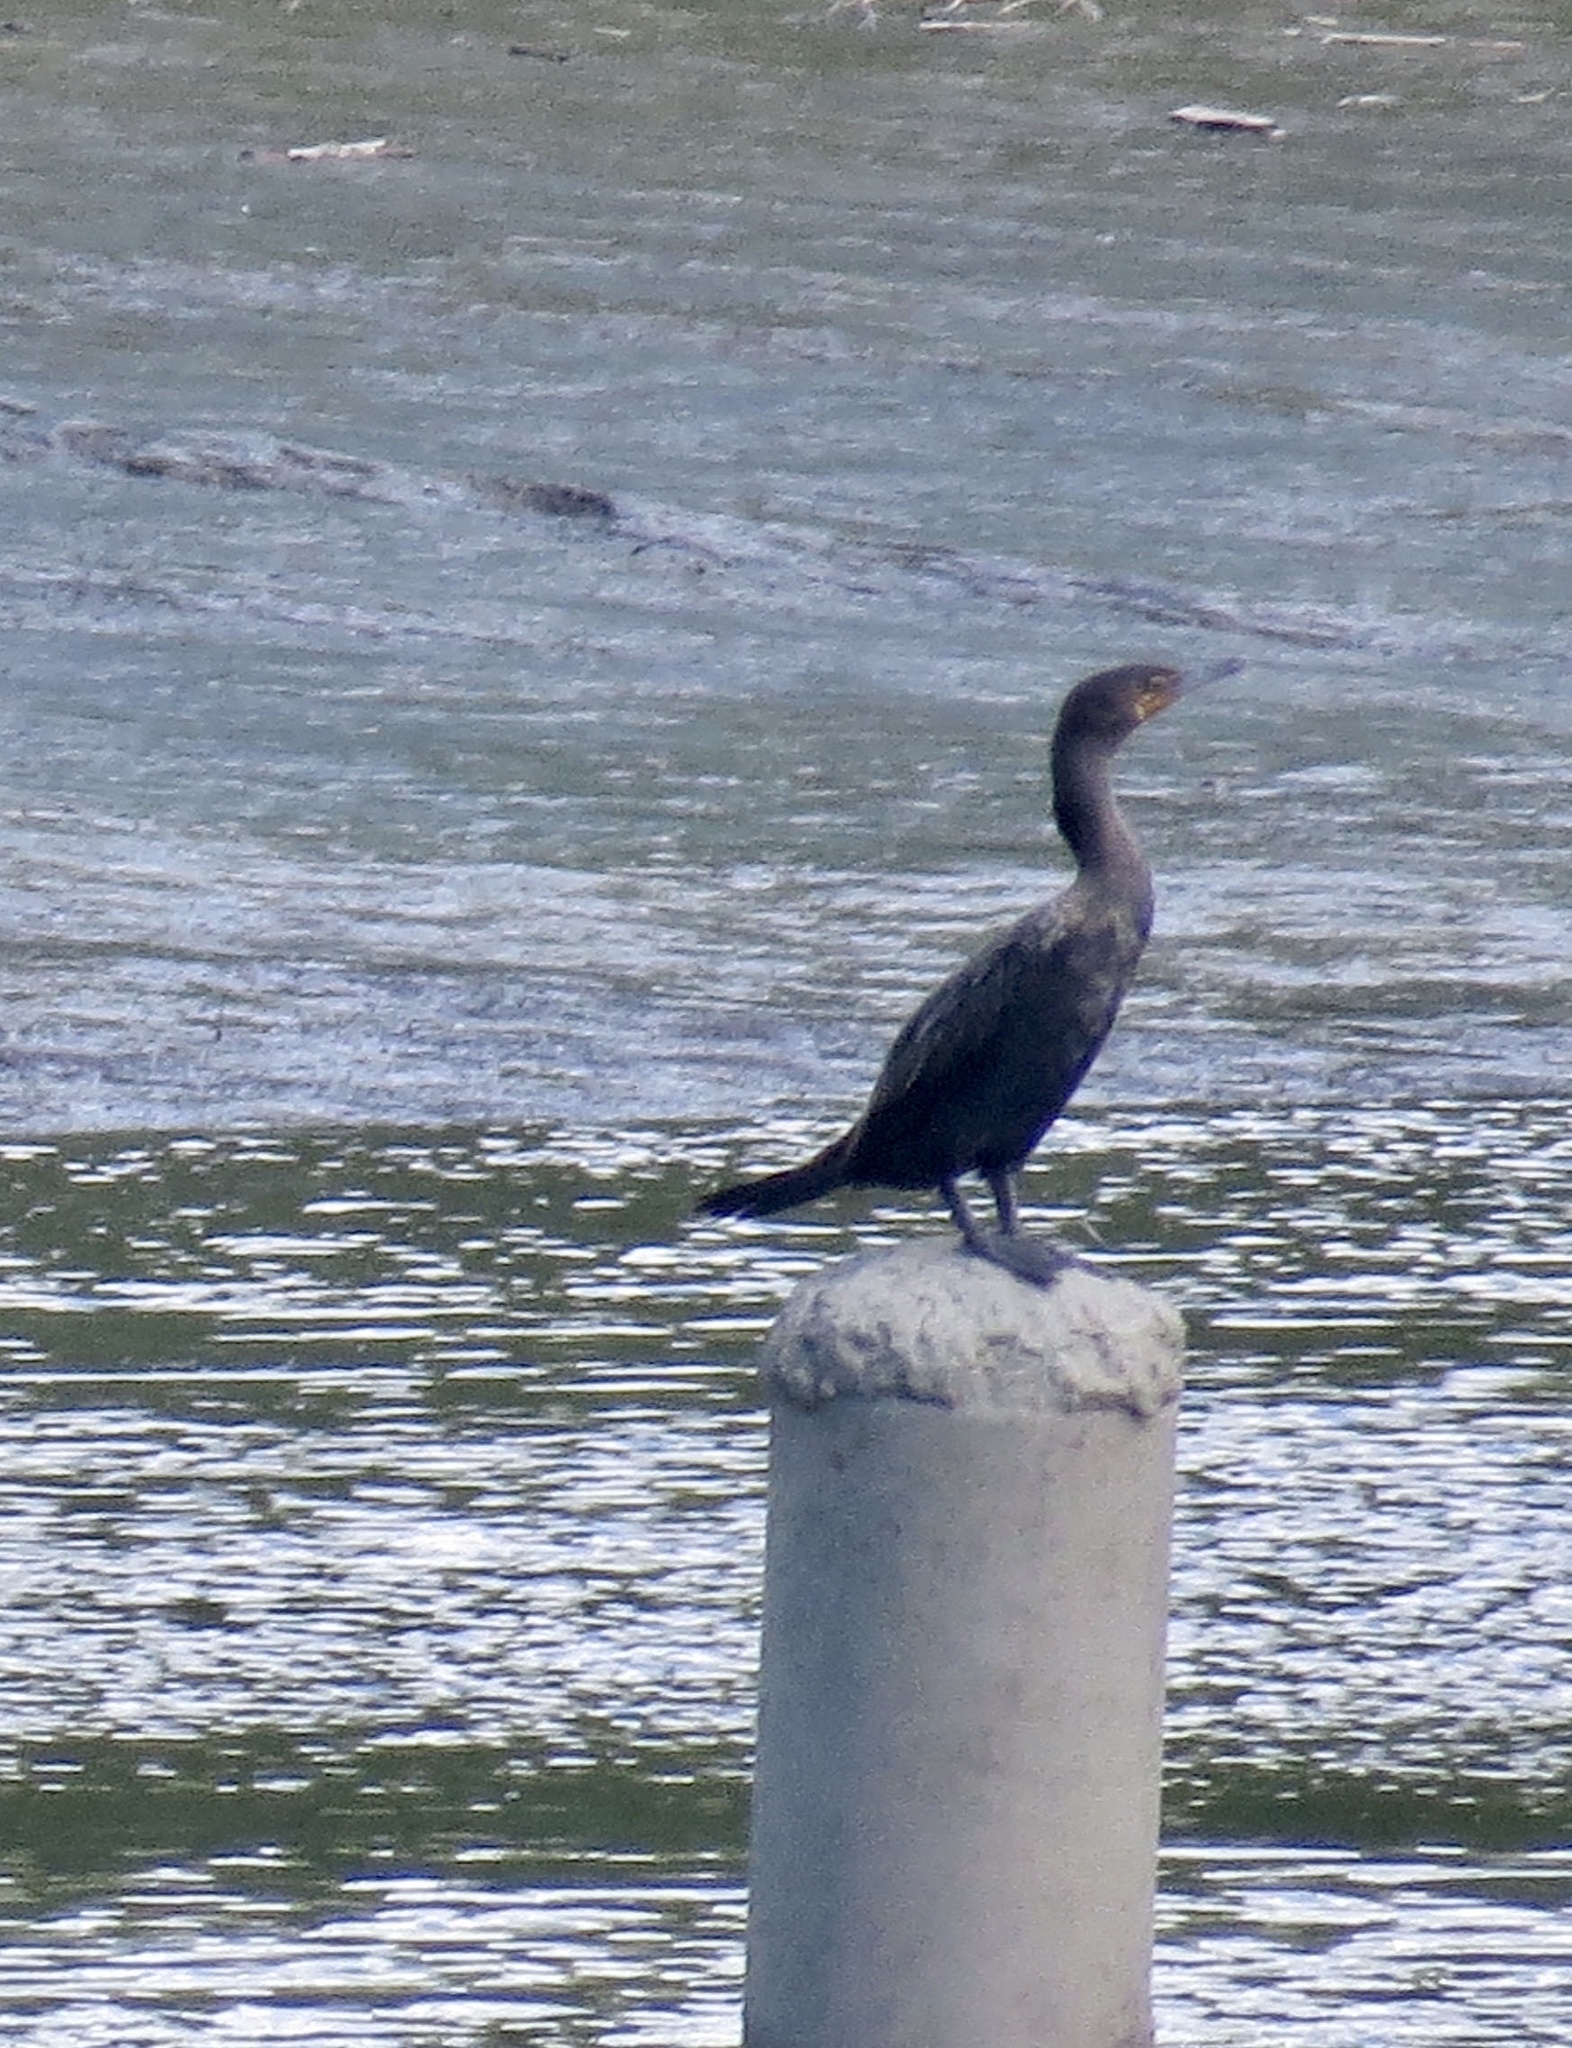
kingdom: Animalia
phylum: Chordata
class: Aves
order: Suliformes
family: Phalacrocoracidae
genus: Phalacrocorax
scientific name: Phalacrocorax auritus
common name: Double-crested cormorant
